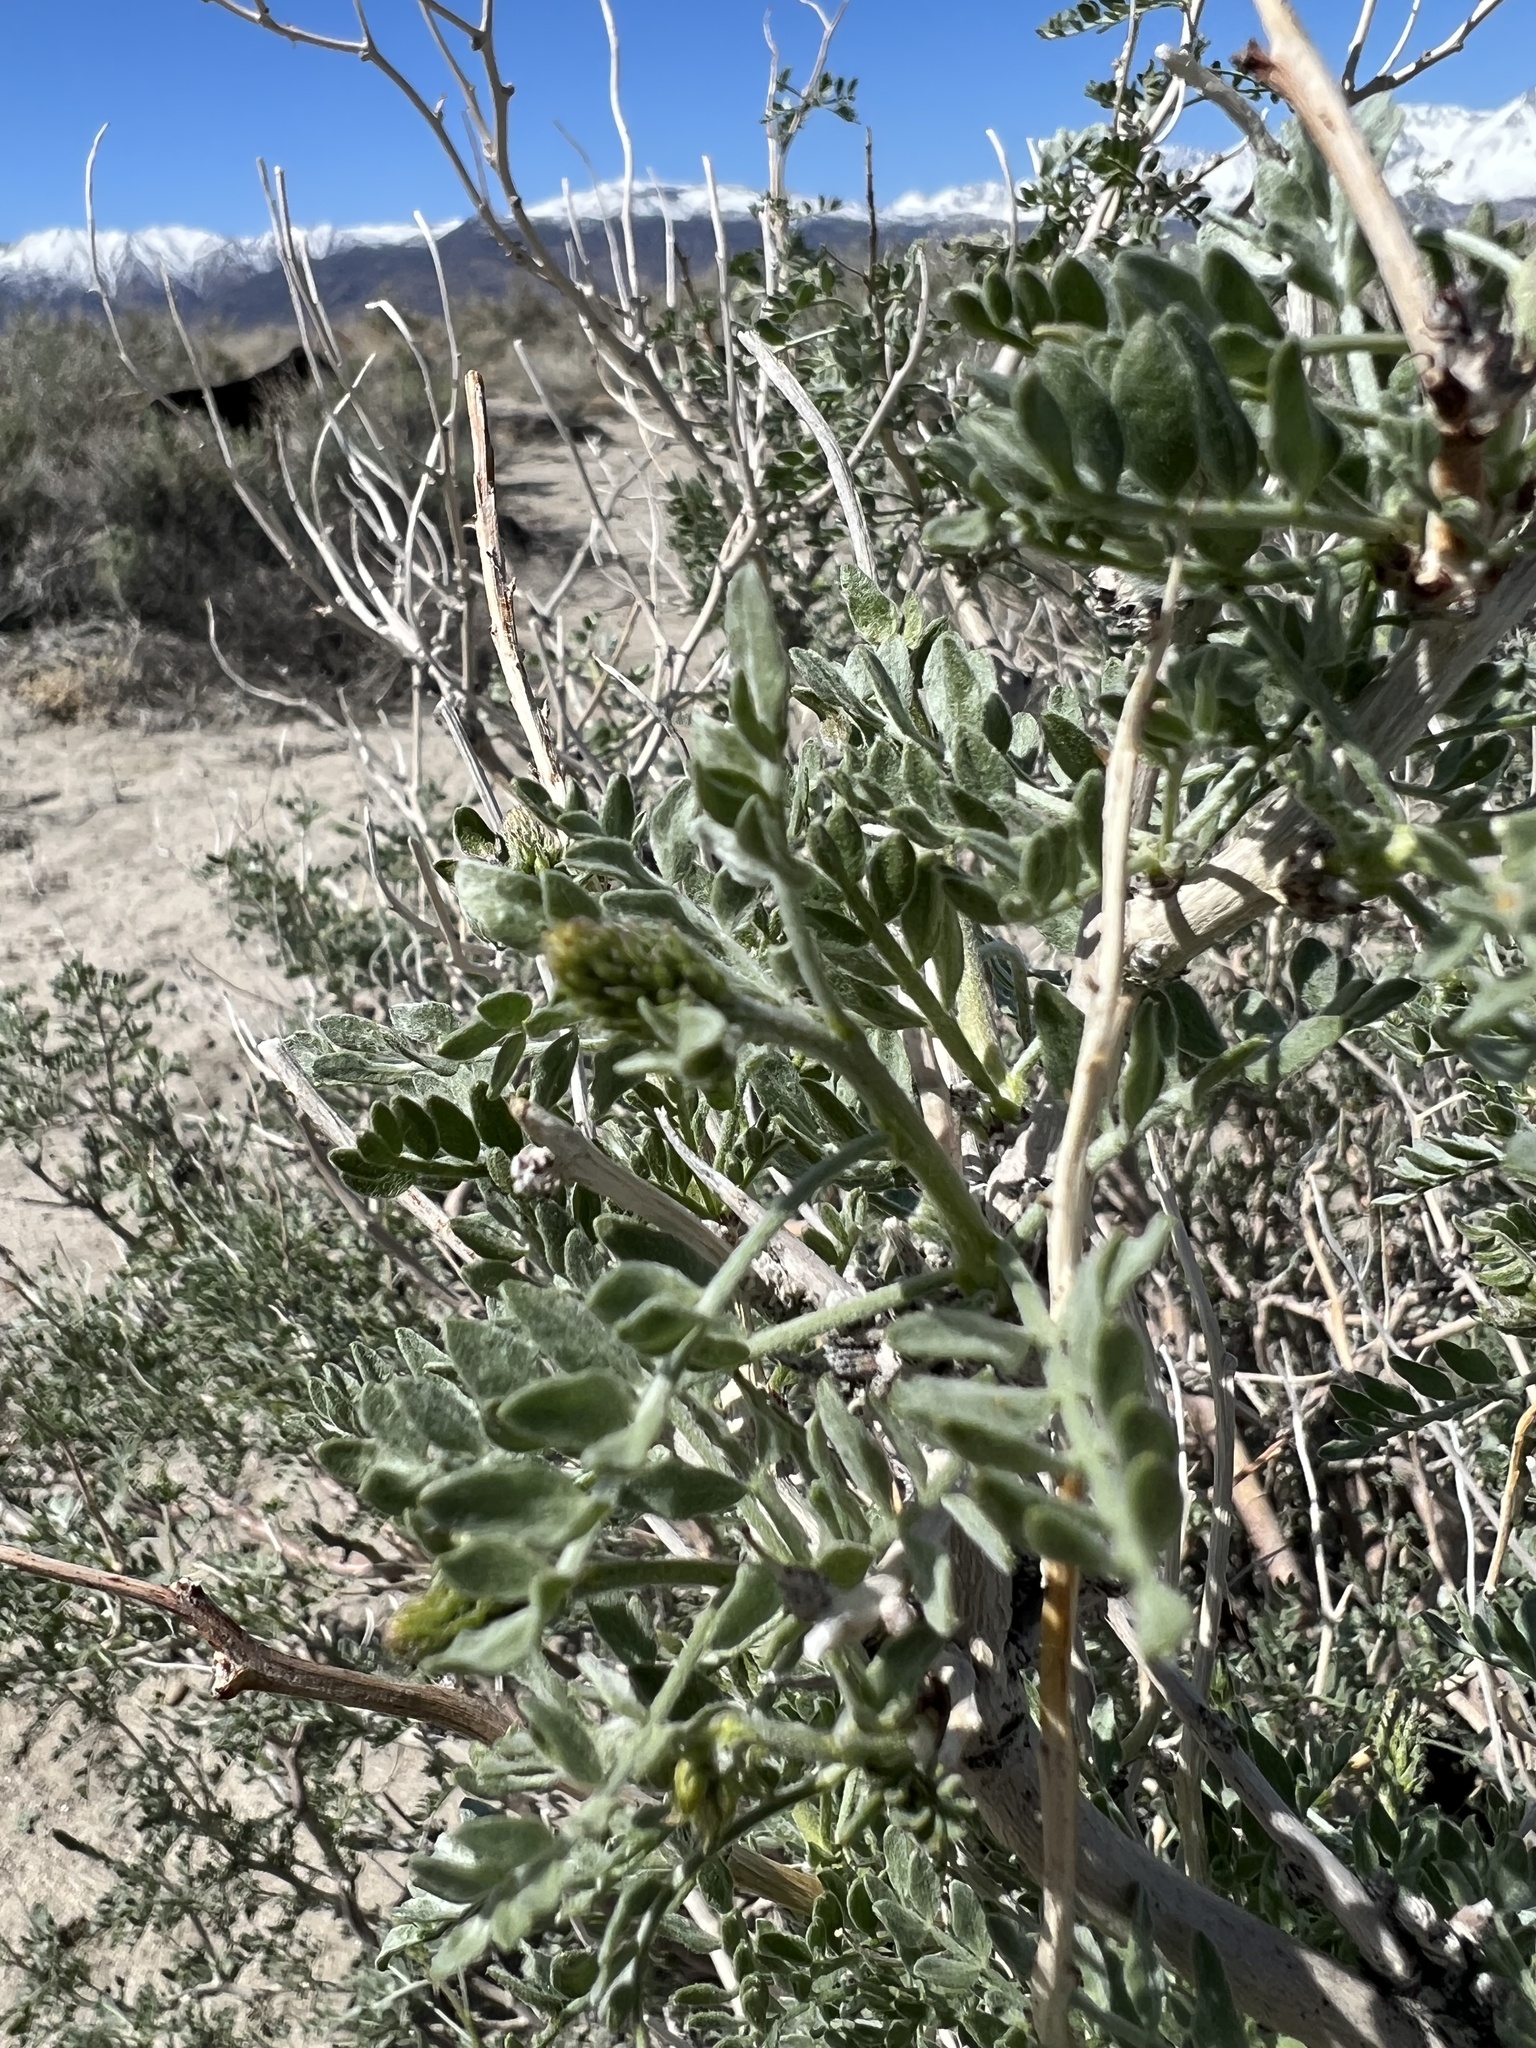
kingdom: Plantae
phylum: Tracheophyta
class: Magnoliopsida
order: Fabales
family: Fabaceae
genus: Psorothamnus
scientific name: Psorothamnus arborescens
